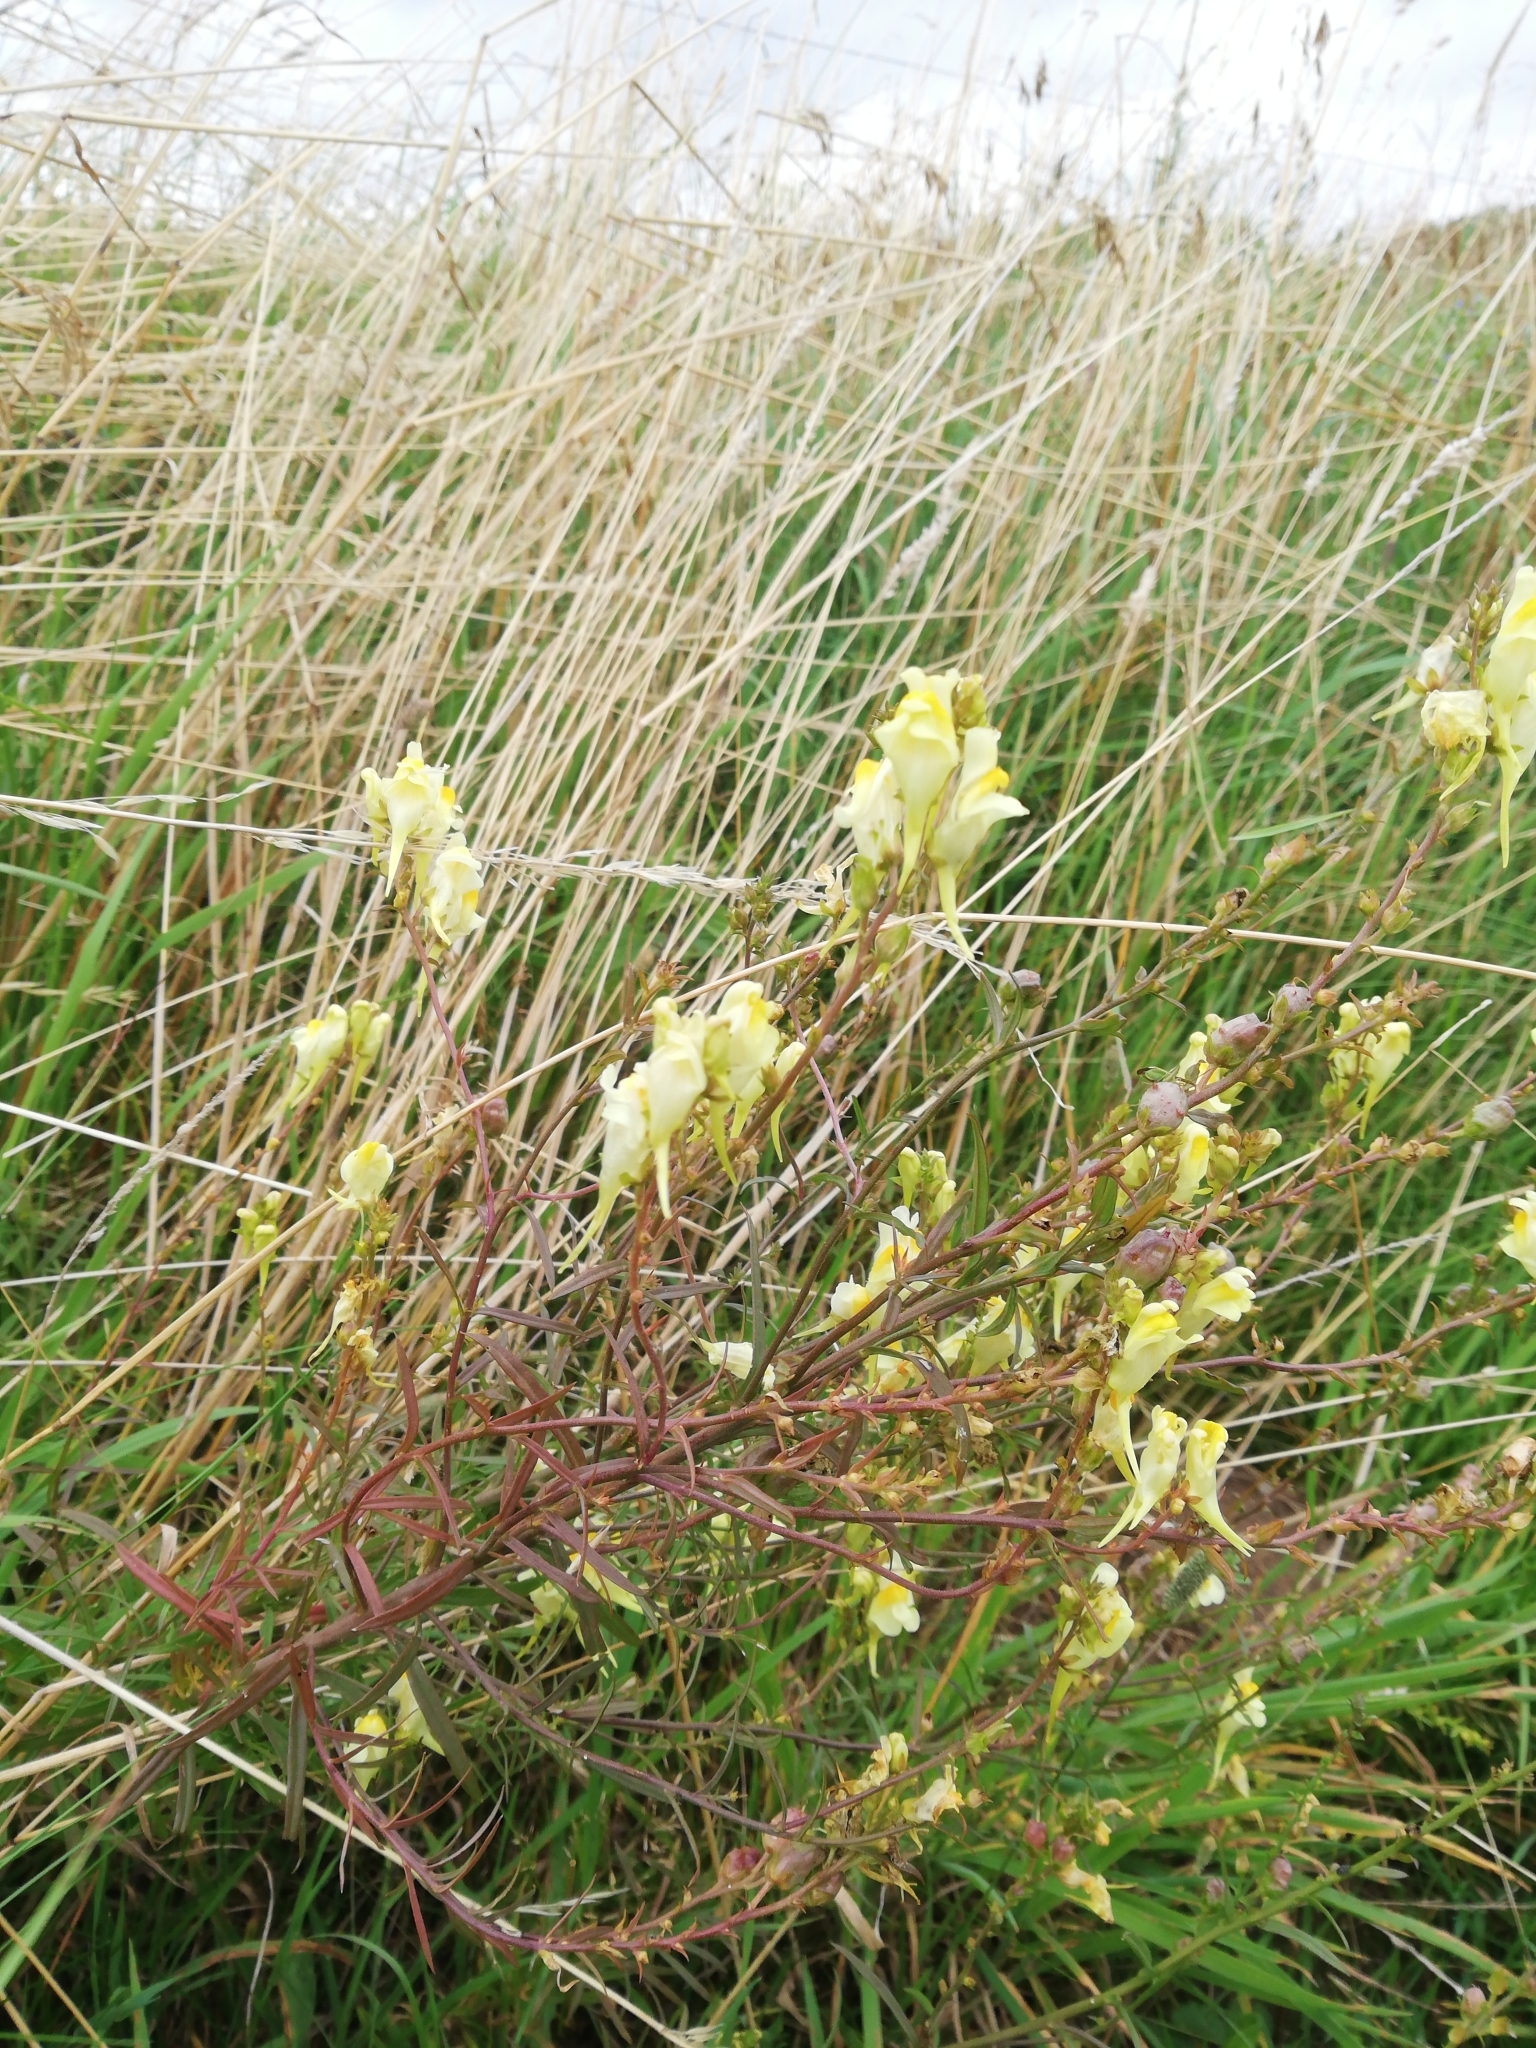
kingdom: Plantae
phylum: Tracheophyta
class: Magnoliopsida
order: Lamiales
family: Plantaginaceae
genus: Linaria
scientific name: Linaria vulgaris
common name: Butter and eggs
